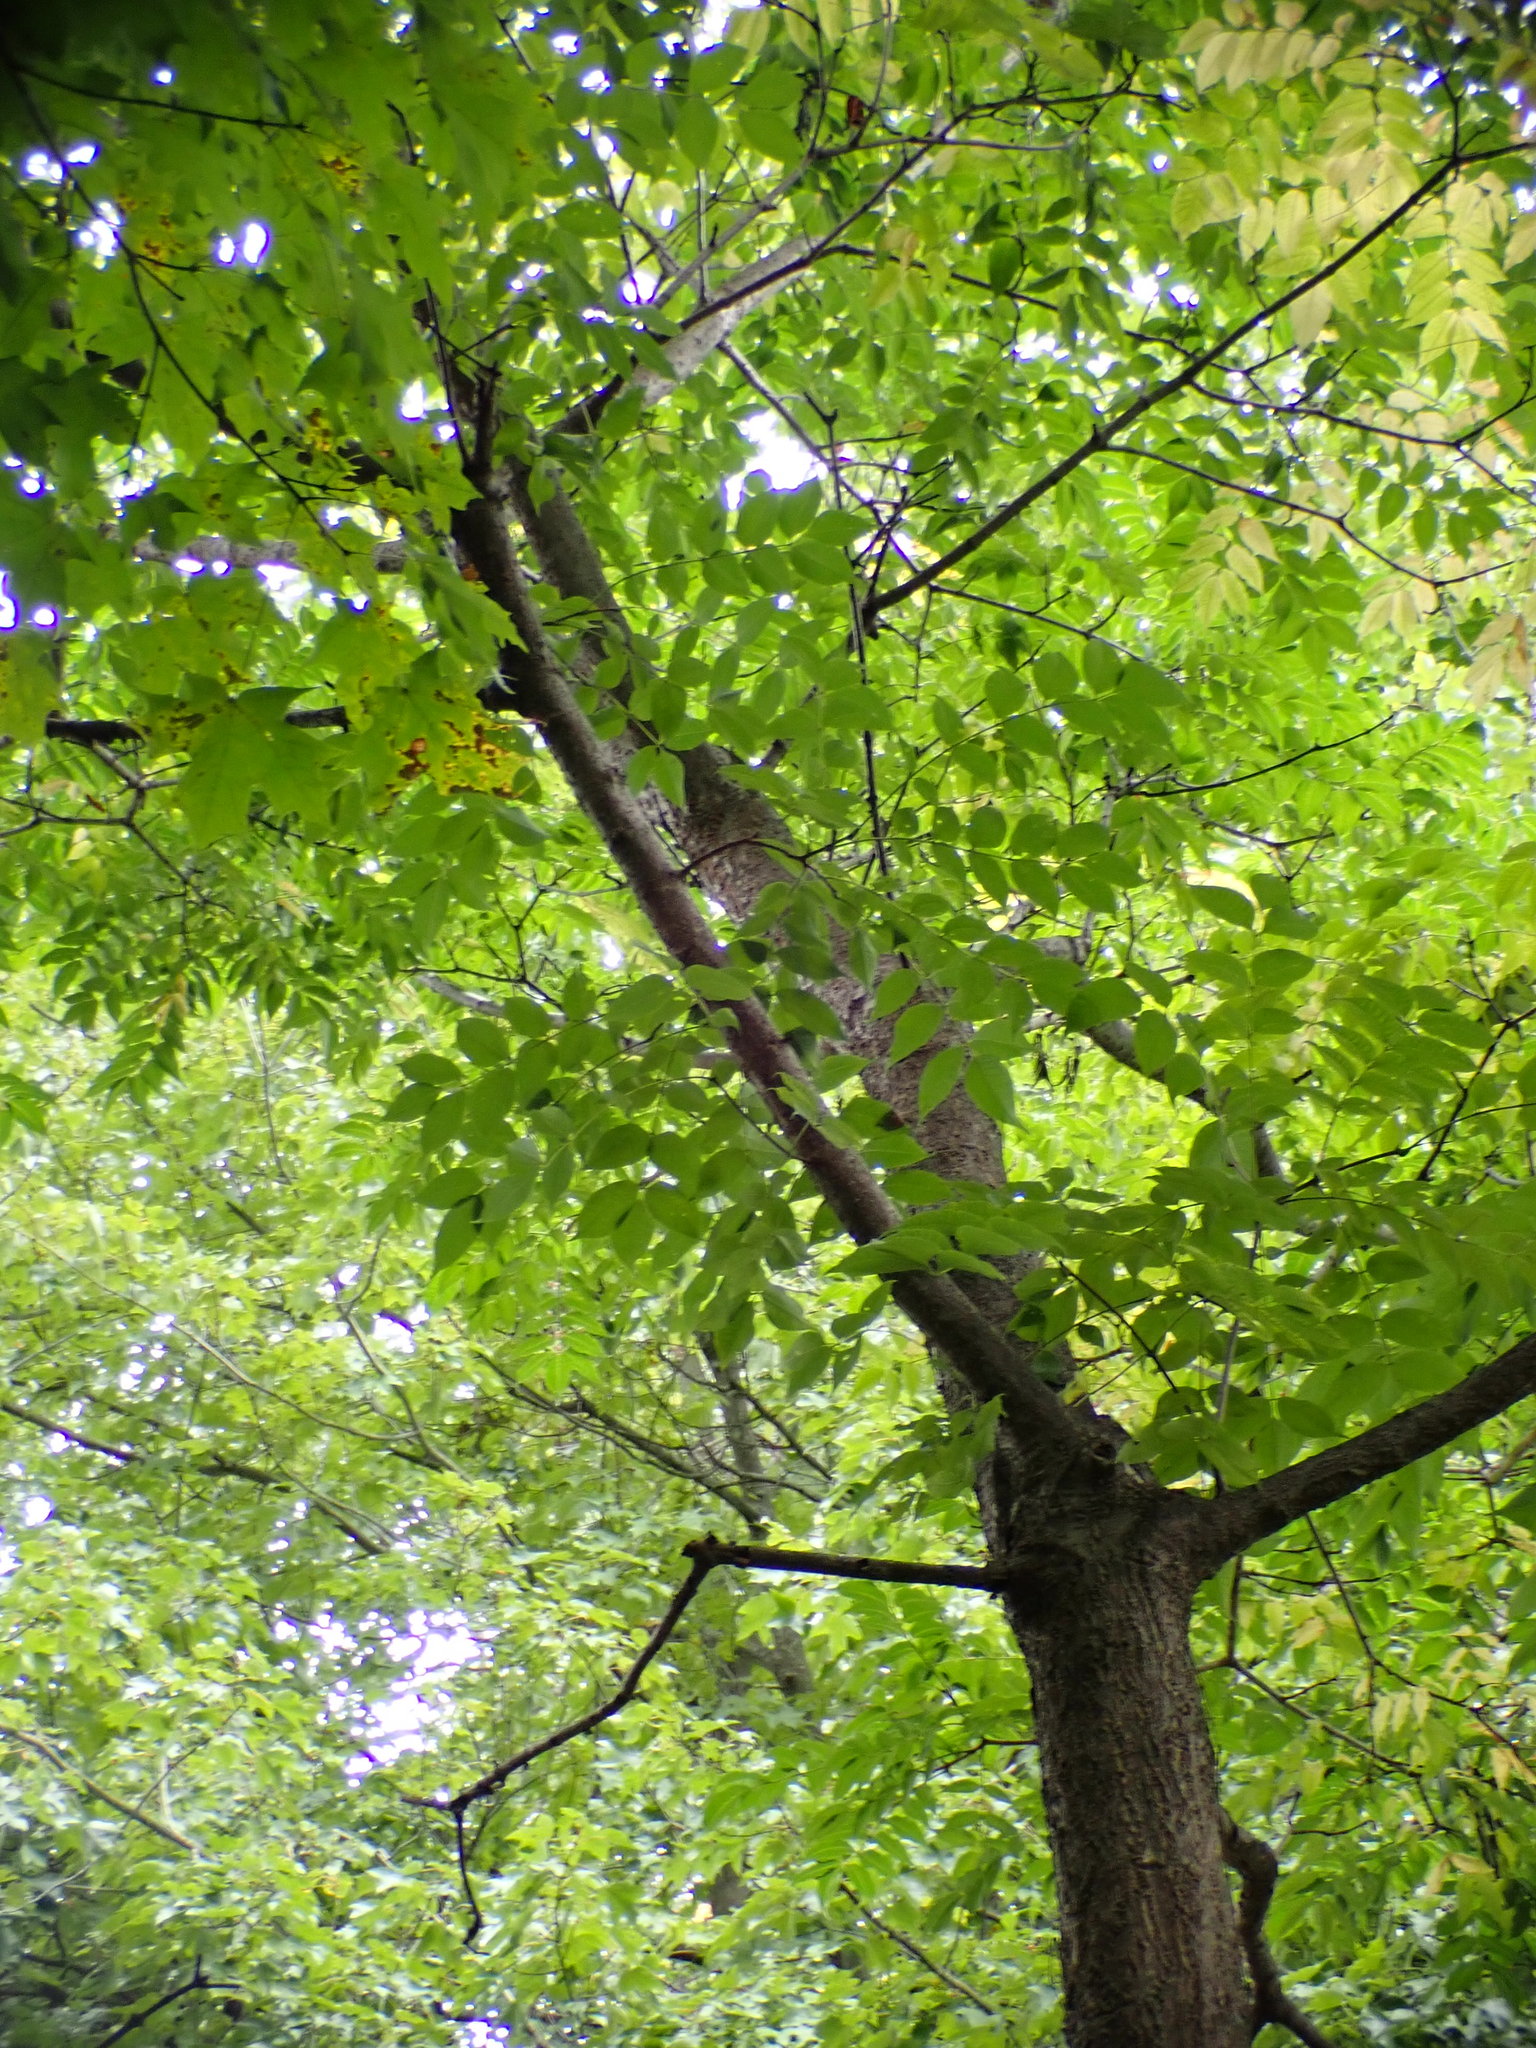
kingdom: Plantae
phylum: Tracheophyta
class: Magnoliopsida
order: Sapindales
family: Rutaceae
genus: Phellodendron
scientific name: Phellodendron amurense
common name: Amur corktree
